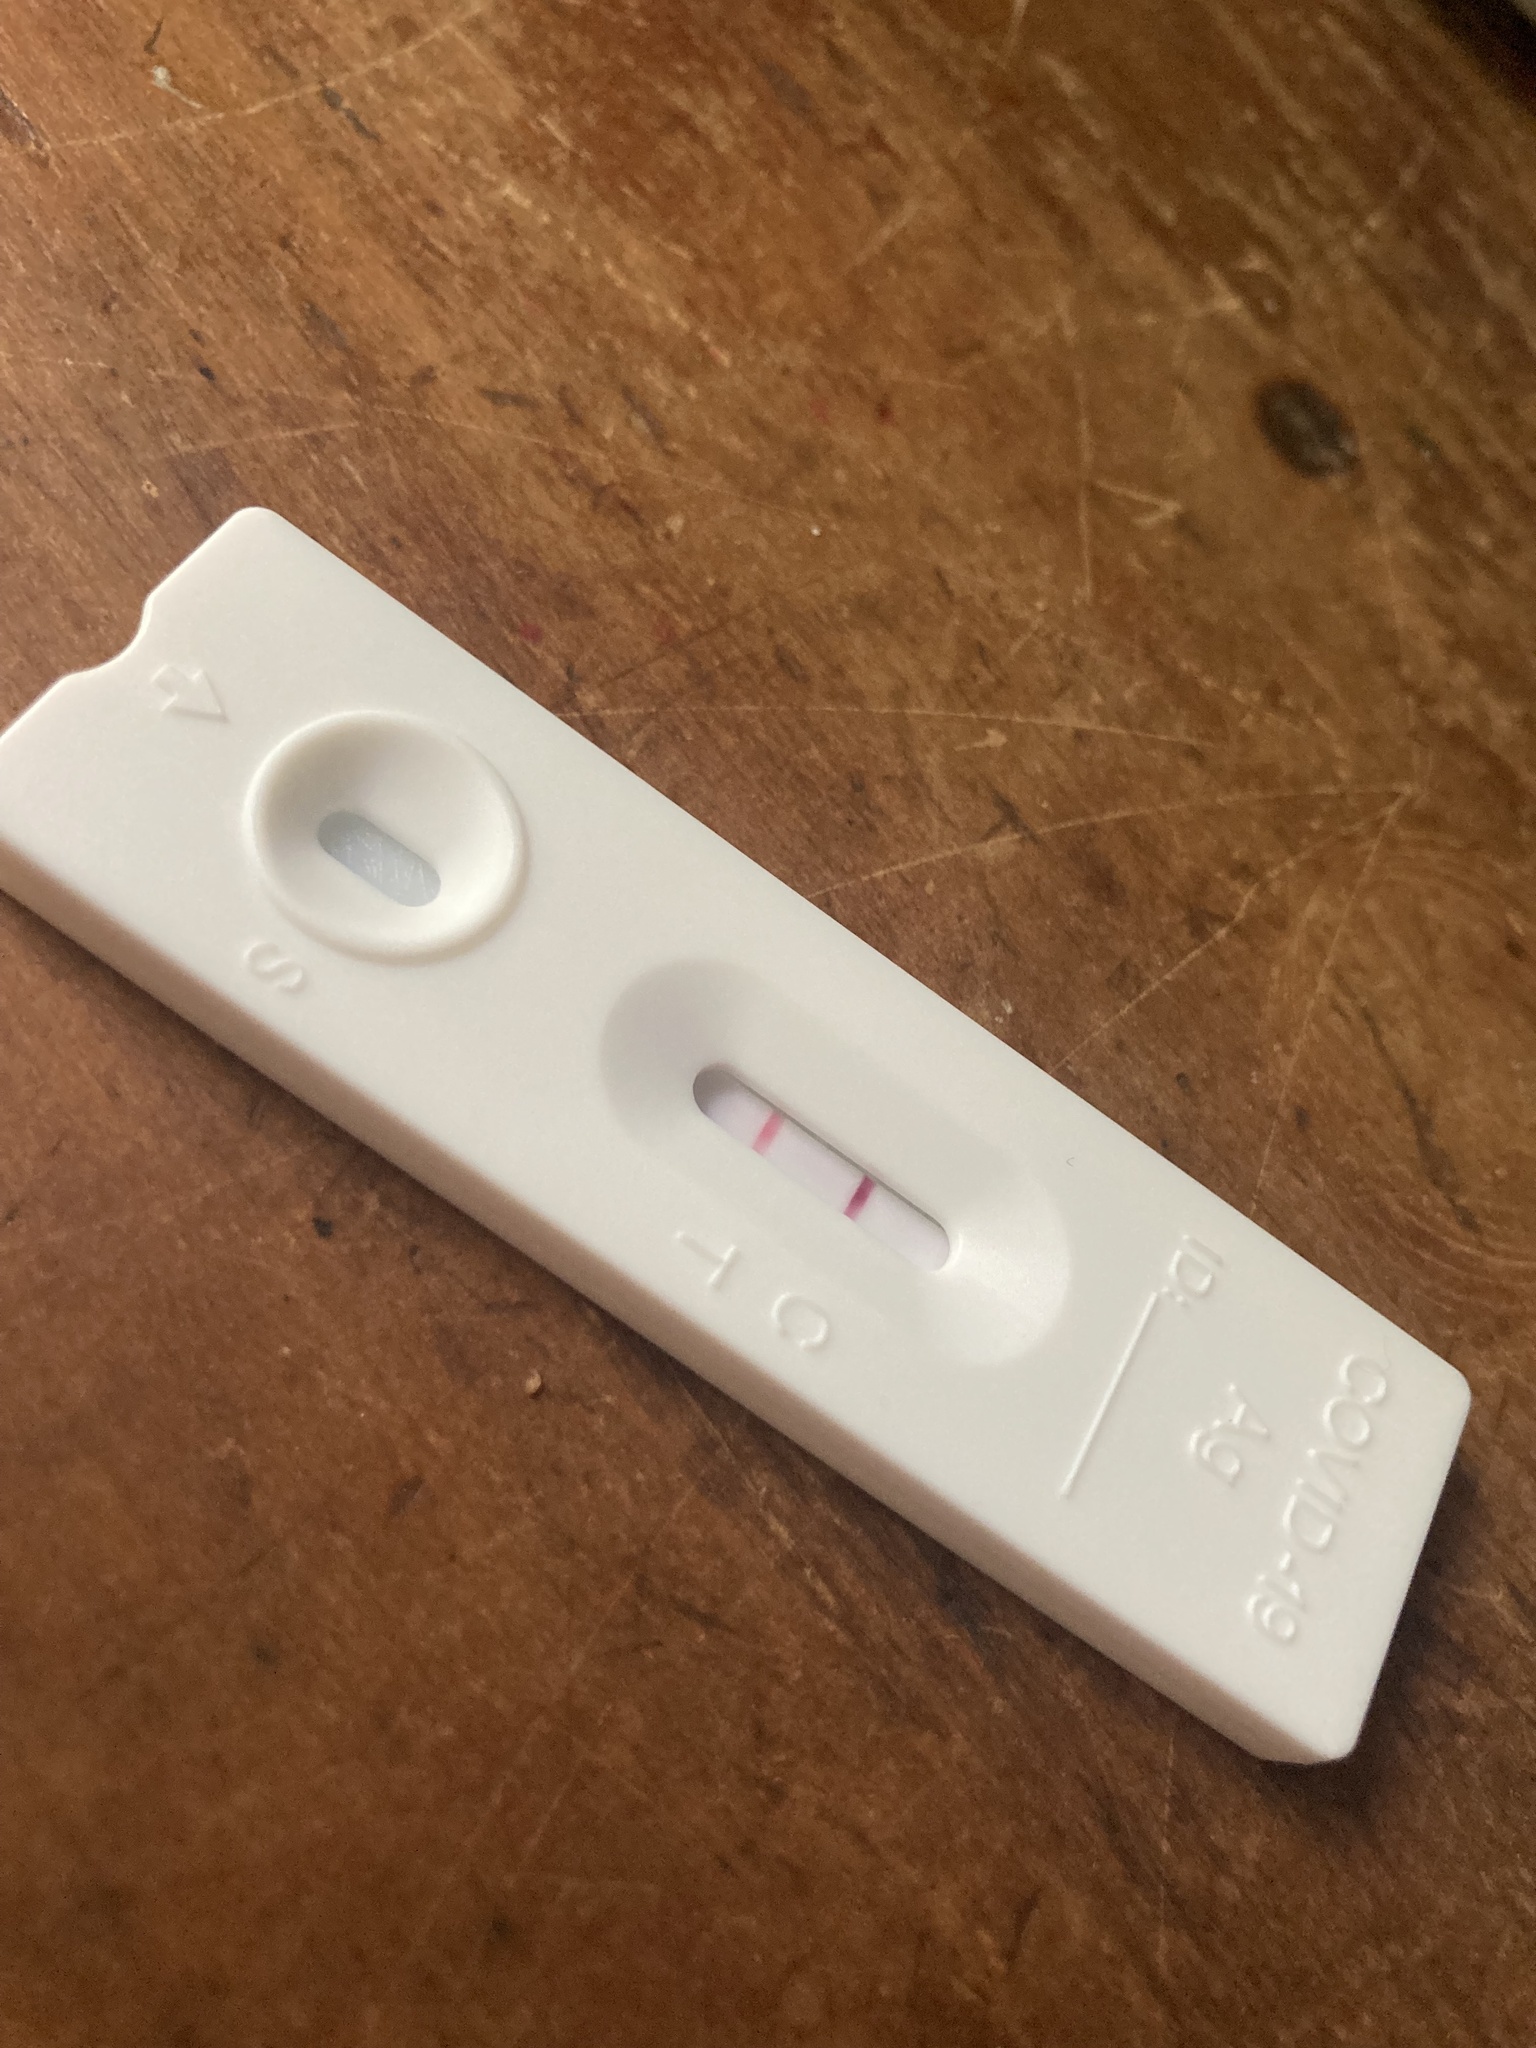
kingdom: Viruses
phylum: Pisuviricota
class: Pisoniviricetes
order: Nidovirales
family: Coronaviridae
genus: Betacoronavirus
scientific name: Betacoronavirus
